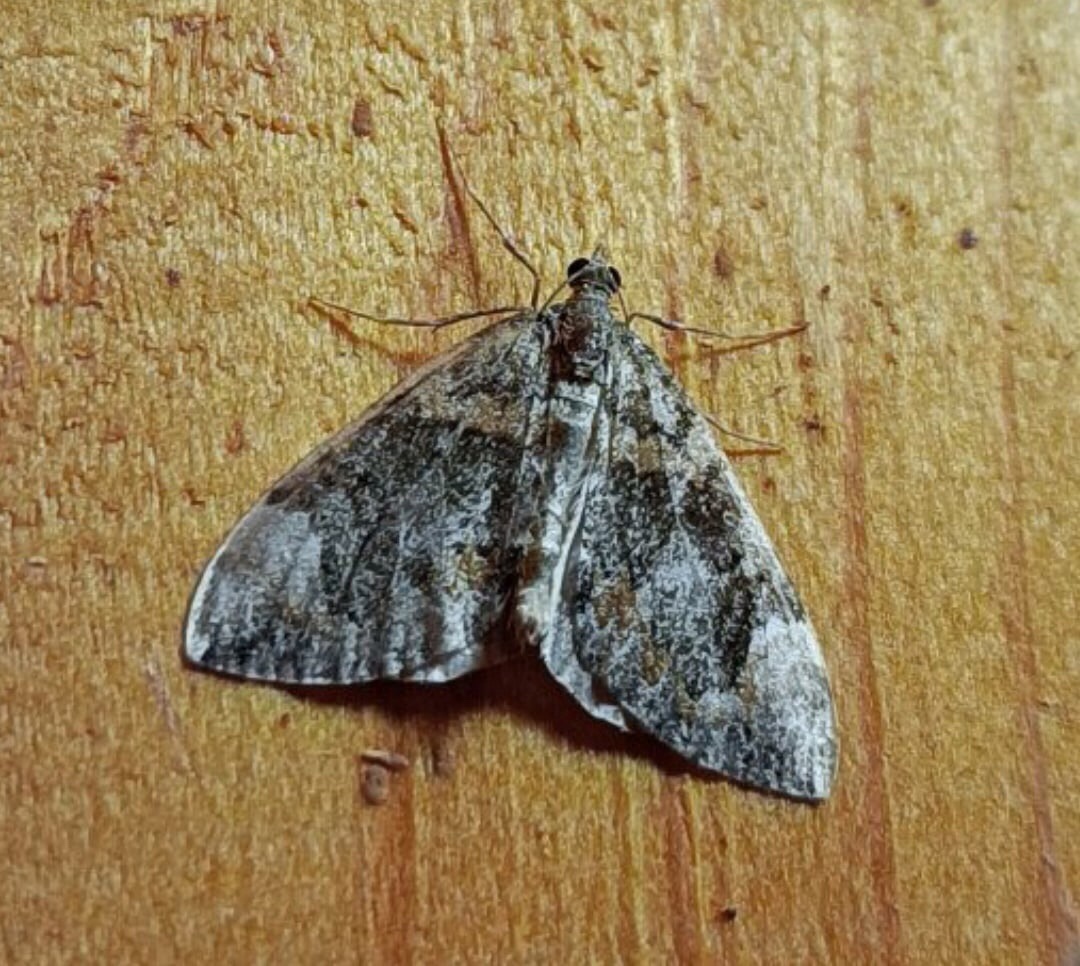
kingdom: Animalia
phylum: Arthropoda
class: Insecta
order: Lepidoptera
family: Geometridae
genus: Dysstroma
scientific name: Dysstroma citrata
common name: Dark marbled carpet
